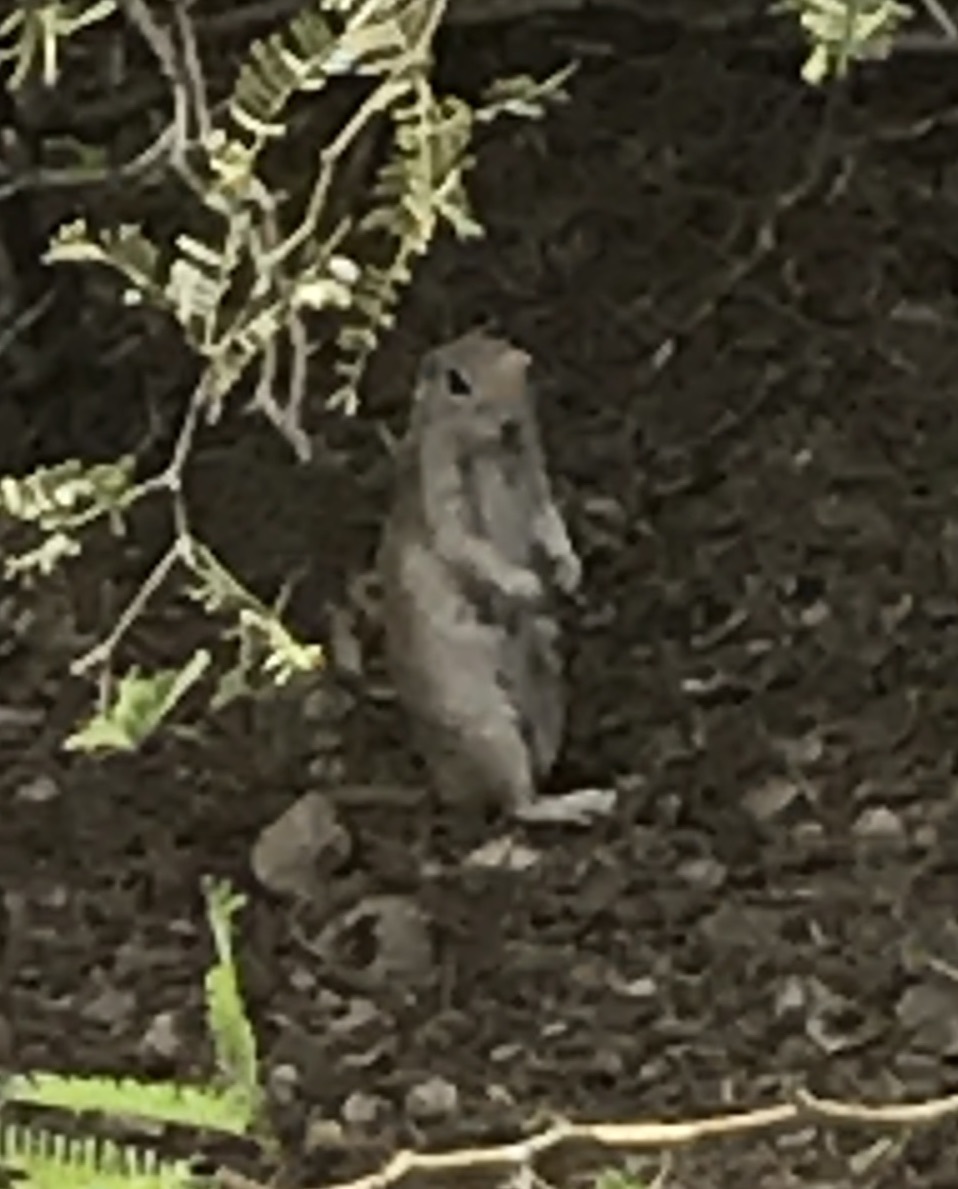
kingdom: Animalia
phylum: Chordata
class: Mammalia
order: Rodentia
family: Sciuridae
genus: Xerospermophilus
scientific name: Xerospermophilus tereticaudus
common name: Round-tailed ground squirrel
